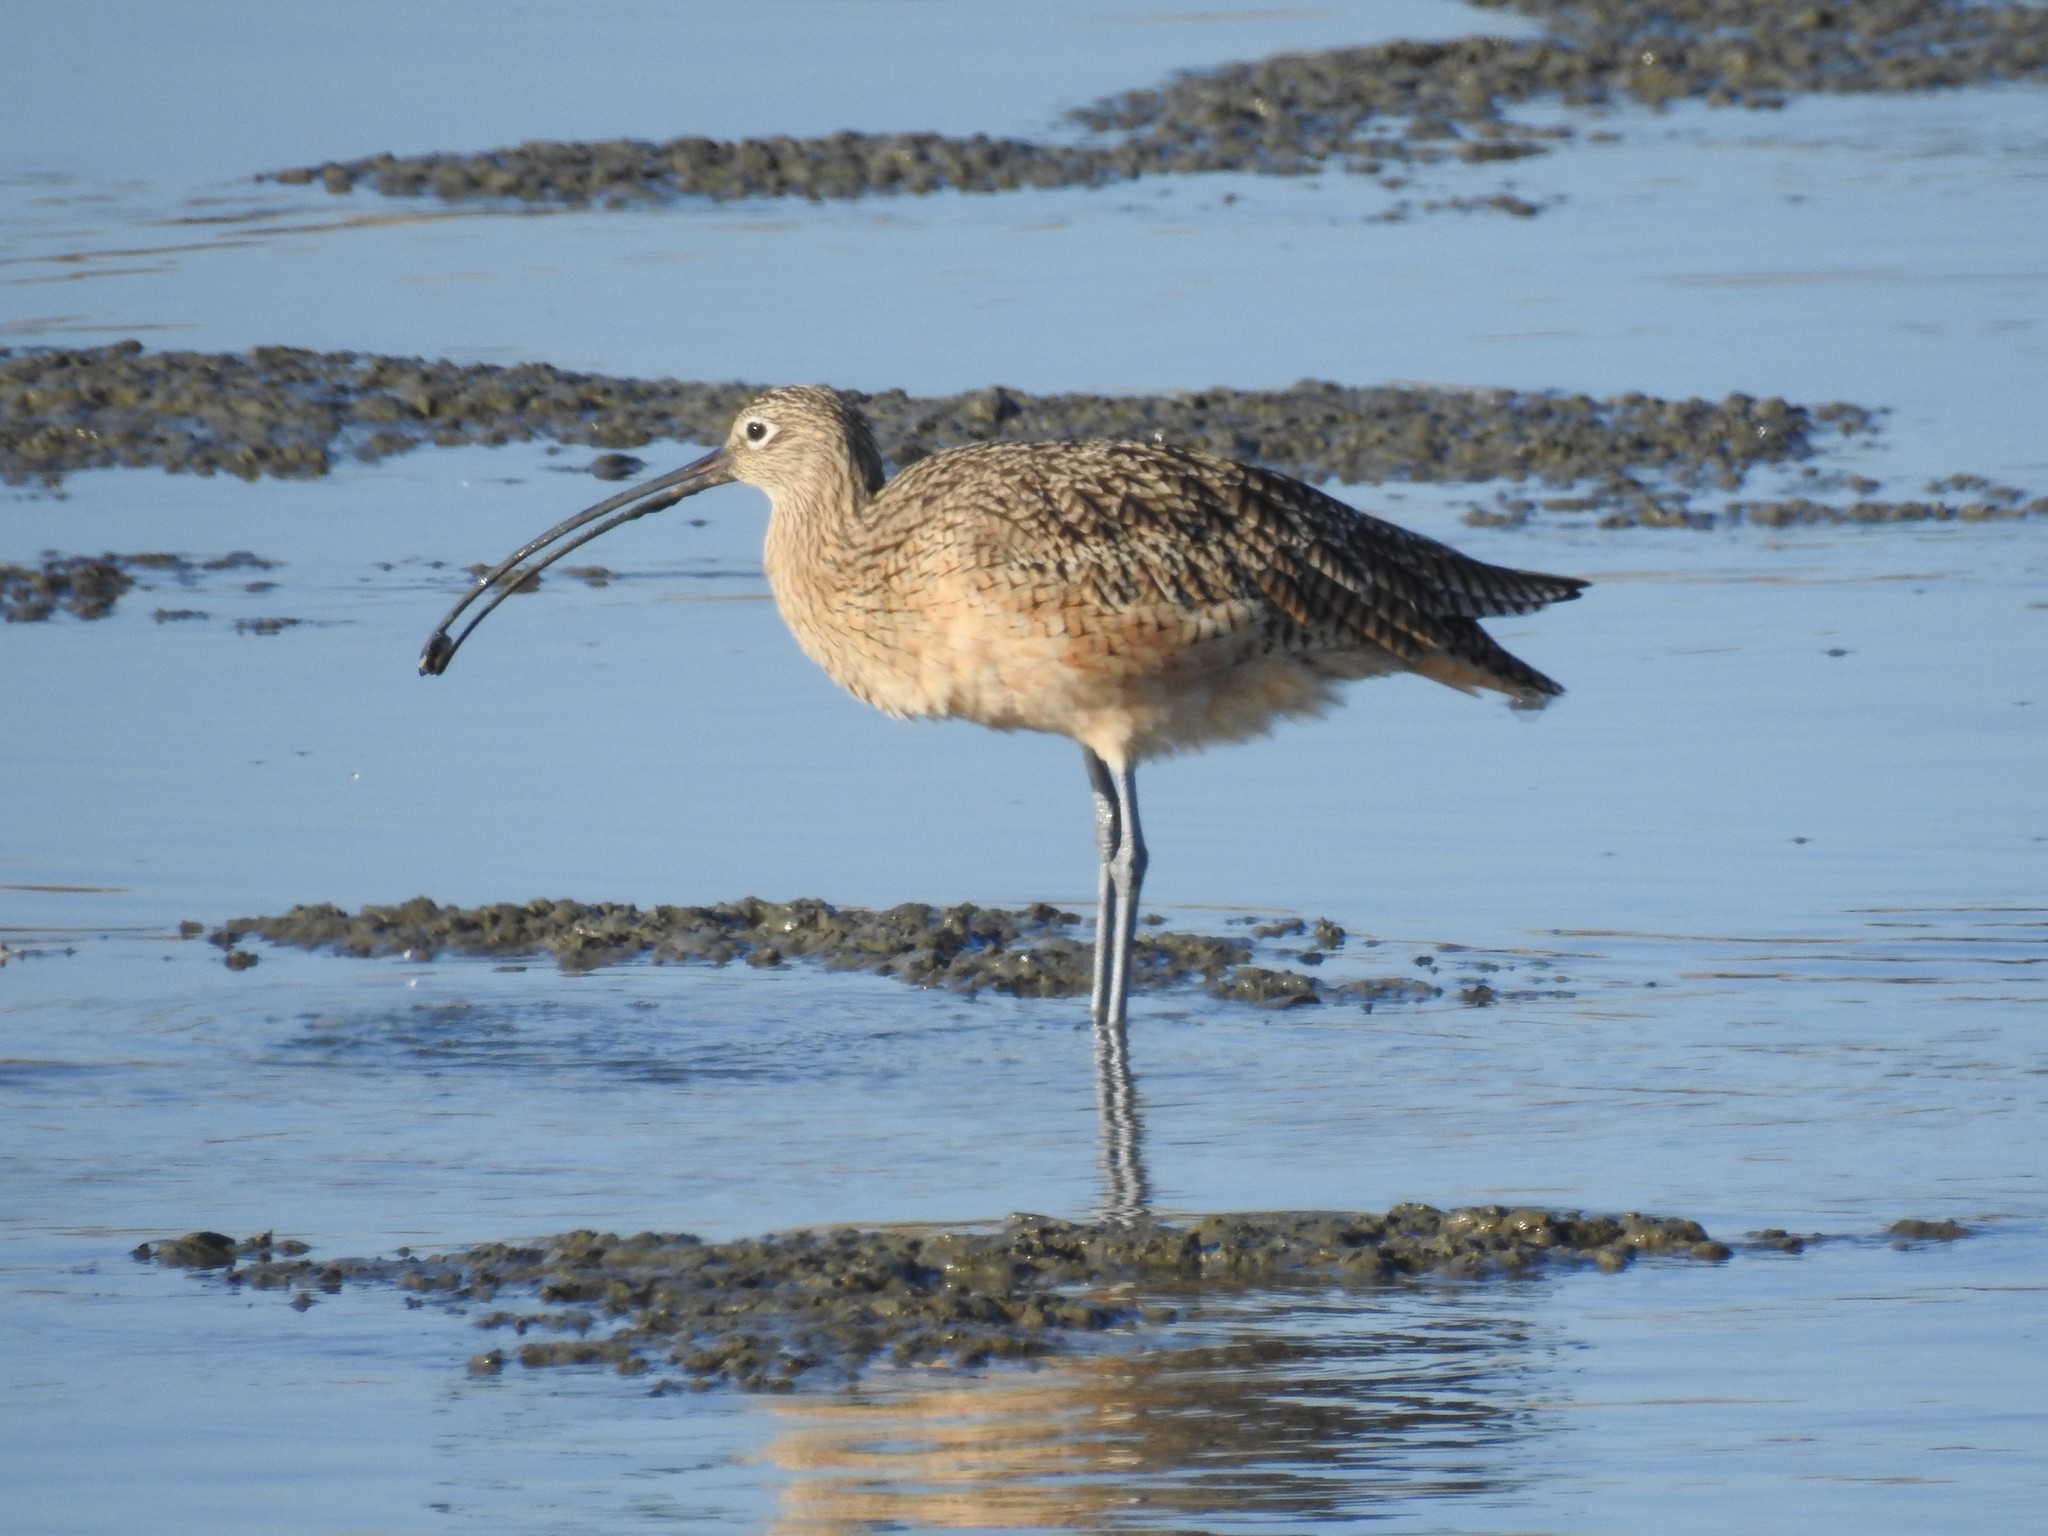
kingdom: Animalia
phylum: Chordata
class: Aves
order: Charadriiformes
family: Scolopacidae
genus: Numenius
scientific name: Numenius americanus
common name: Long-billed curlew
